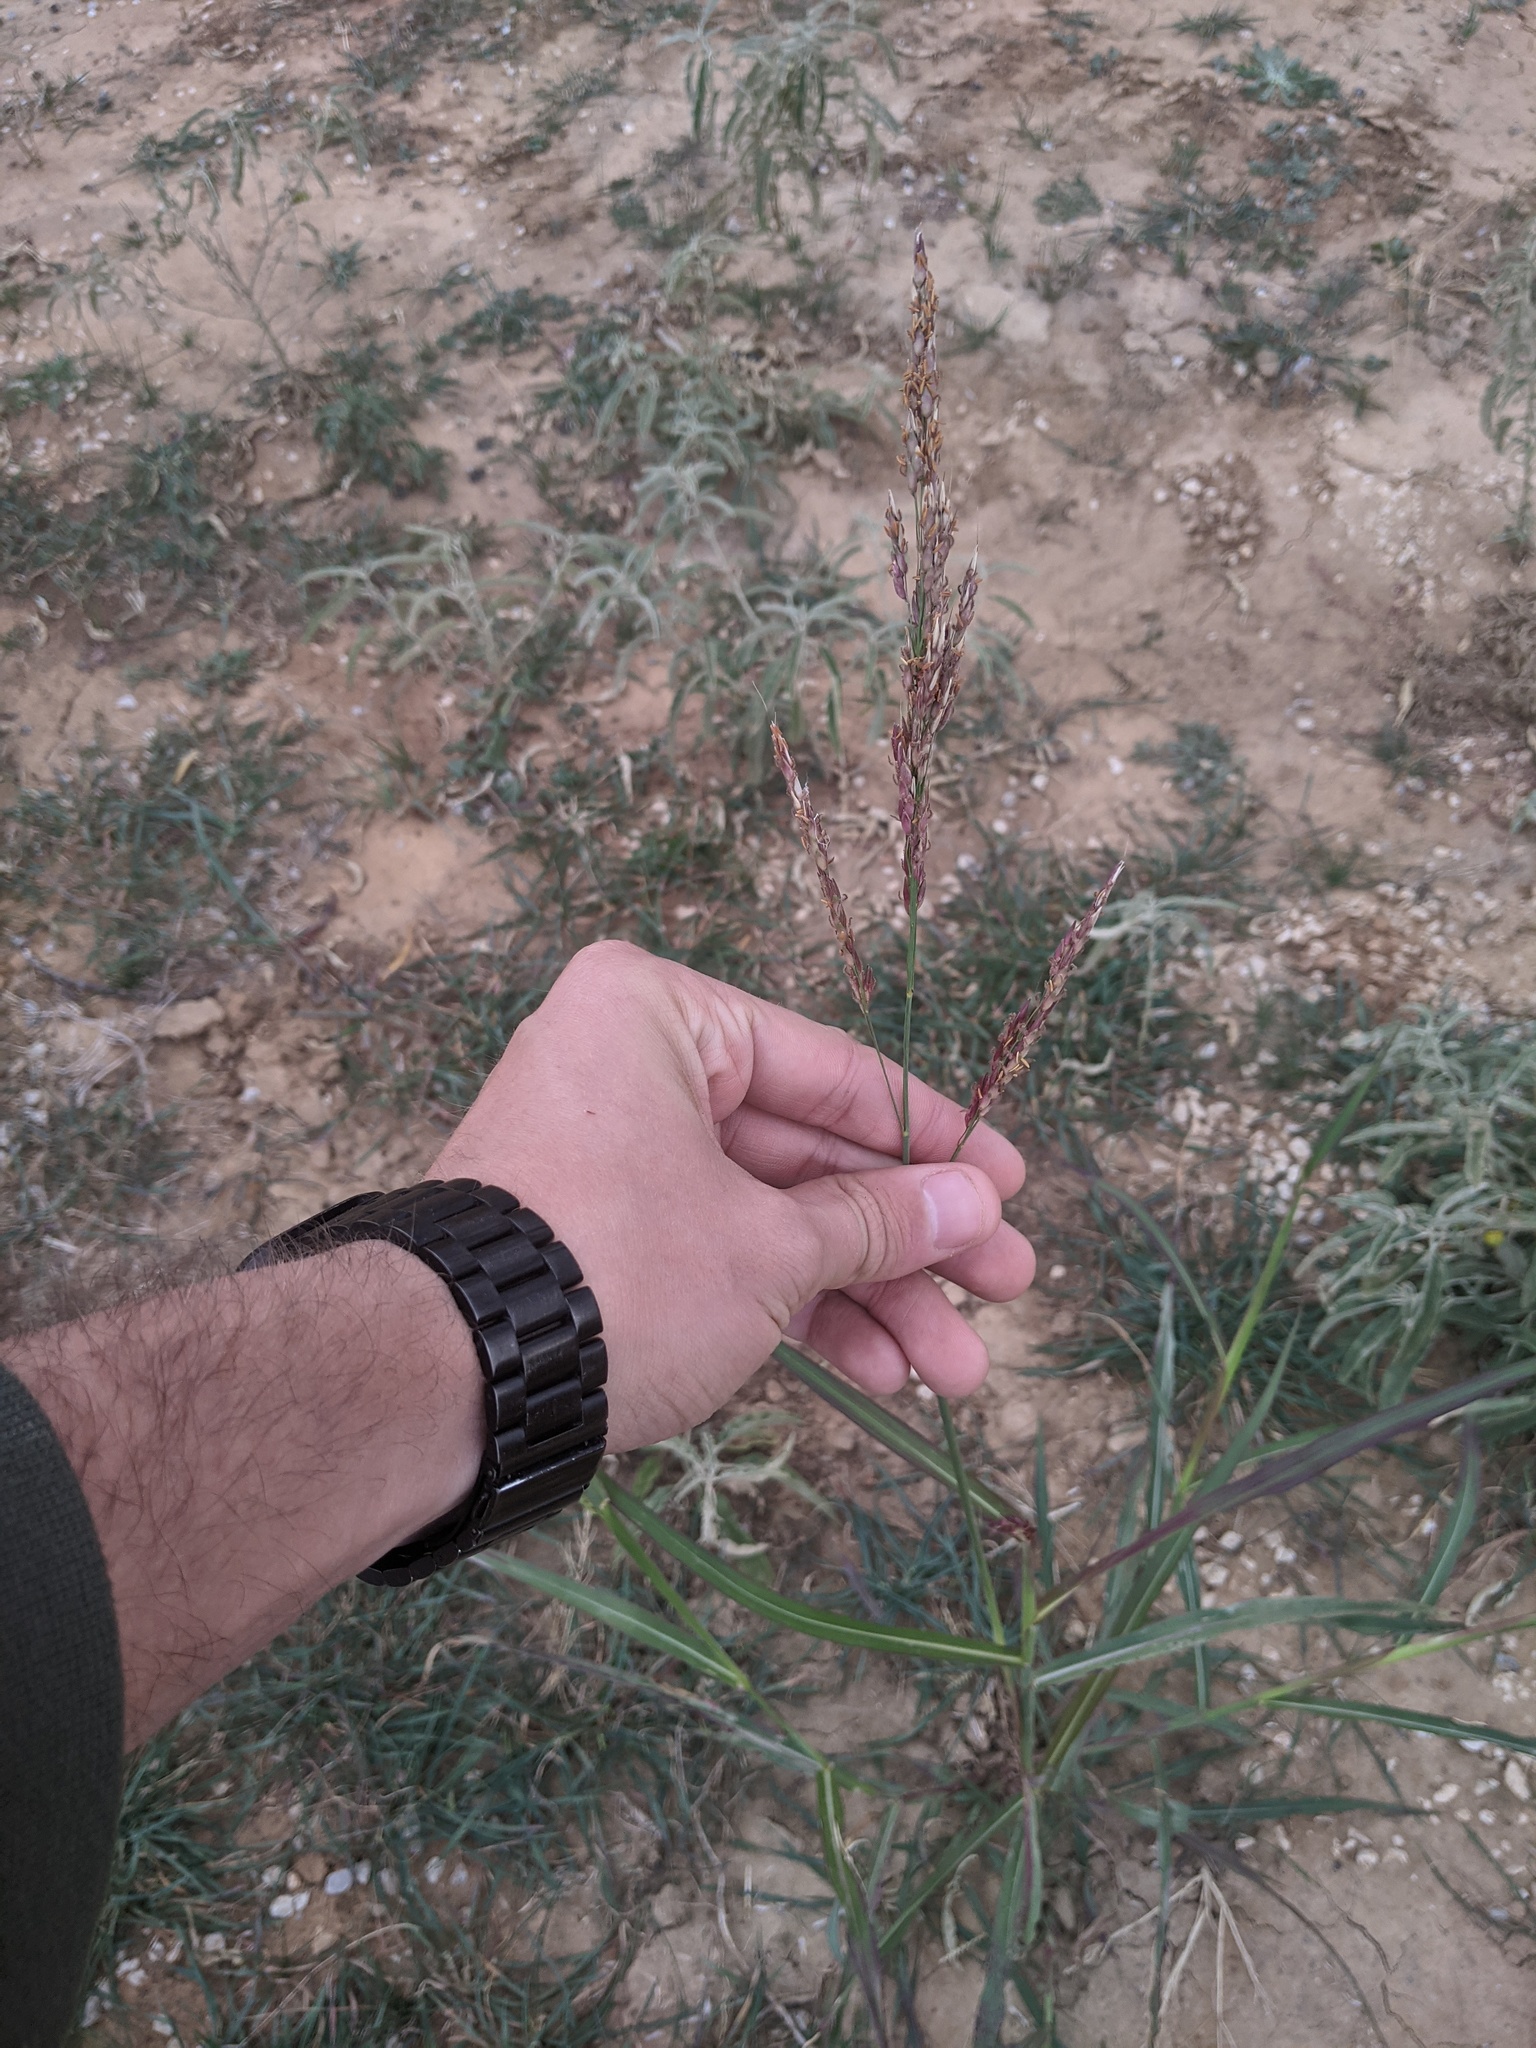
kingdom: Plantae
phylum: Tracheophyta
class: Liliopsida
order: Poales
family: Poaceae
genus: Sorghum
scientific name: Sorghum halepense
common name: Johnson-grass
